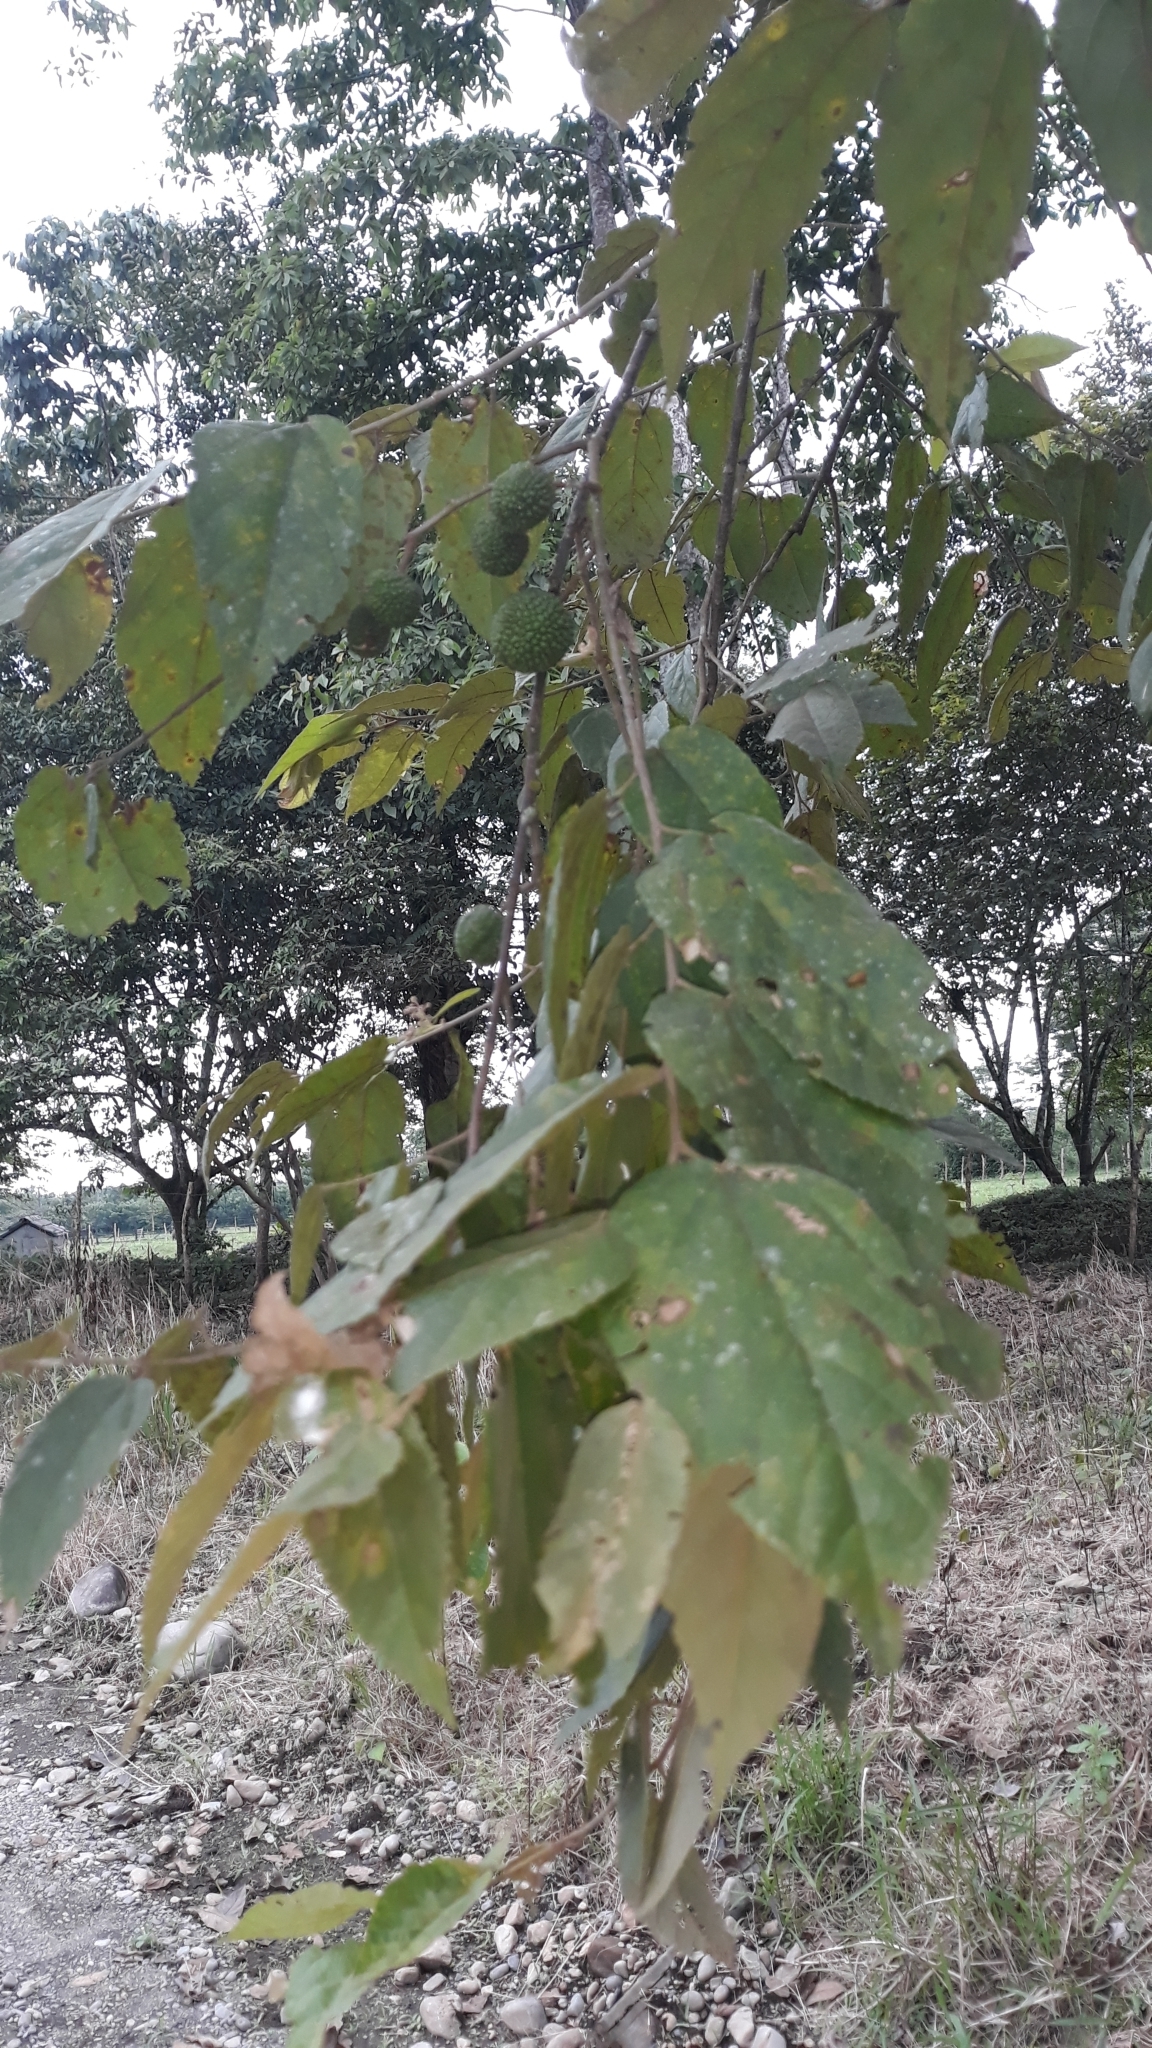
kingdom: Plantae
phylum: Tracheophyta
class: Magnoliopsida
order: Malvales
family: Malvaceae
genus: Guazuma
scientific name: Guazuma ulmifolia
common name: Bastard-cedar
